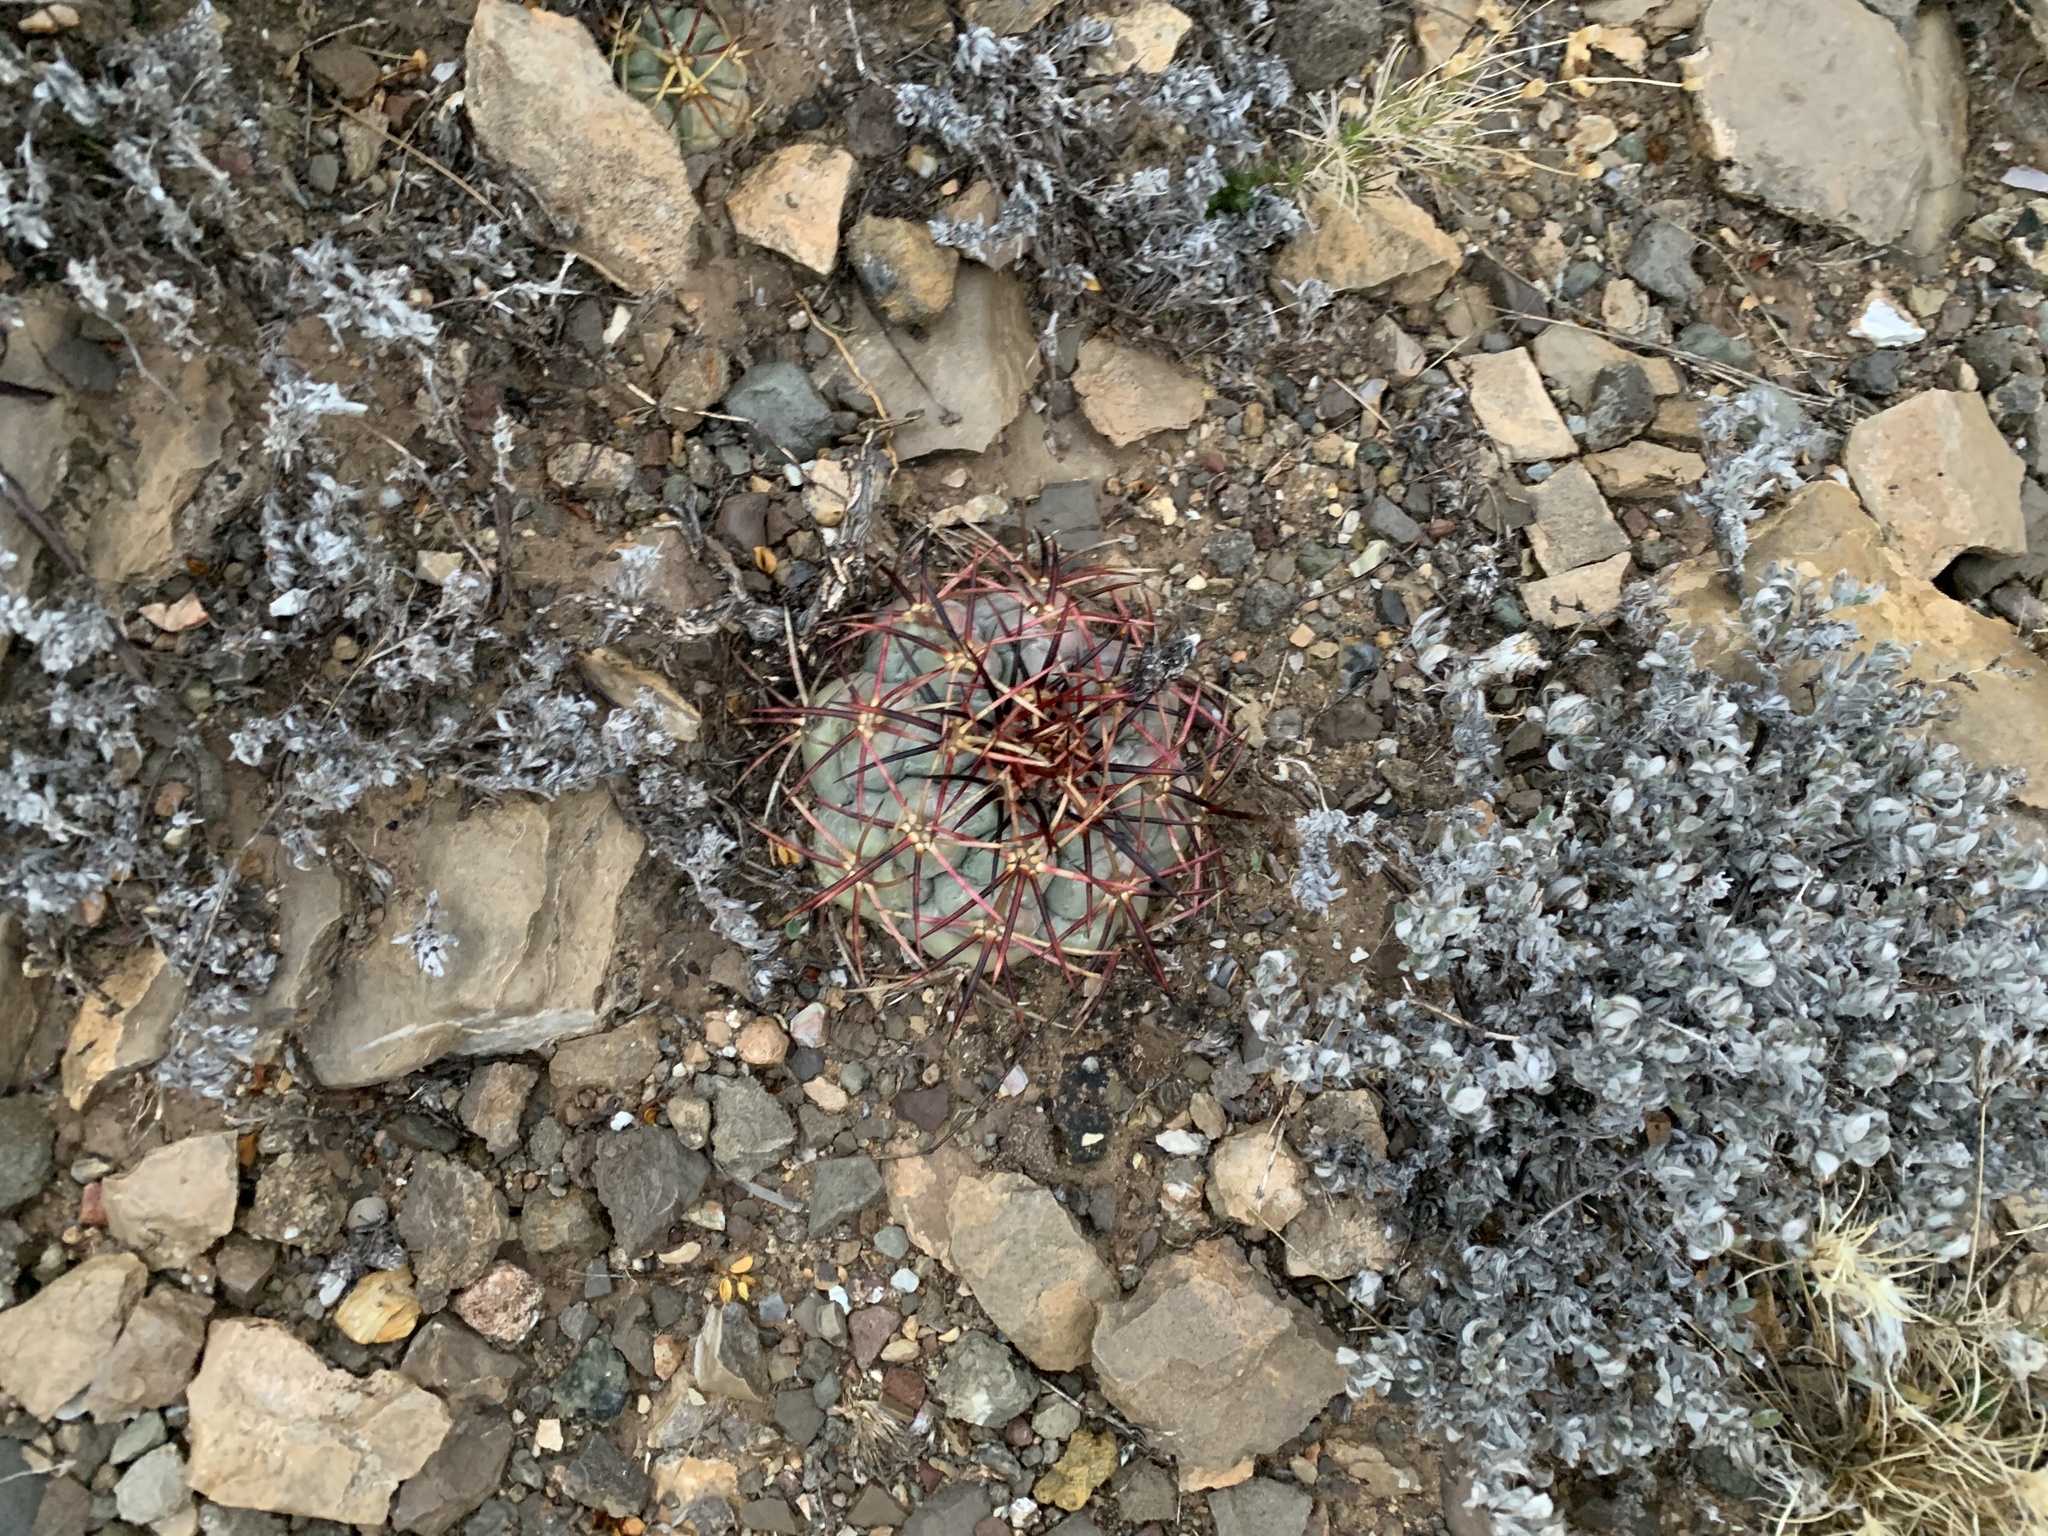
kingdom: Plantae
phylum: Tracheophyta
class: Magnoliopsida
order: Caryophyllales
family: Cactaceae
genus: Echinocactus
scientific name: Echinocactus horizonthalonius
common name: Devilshead
